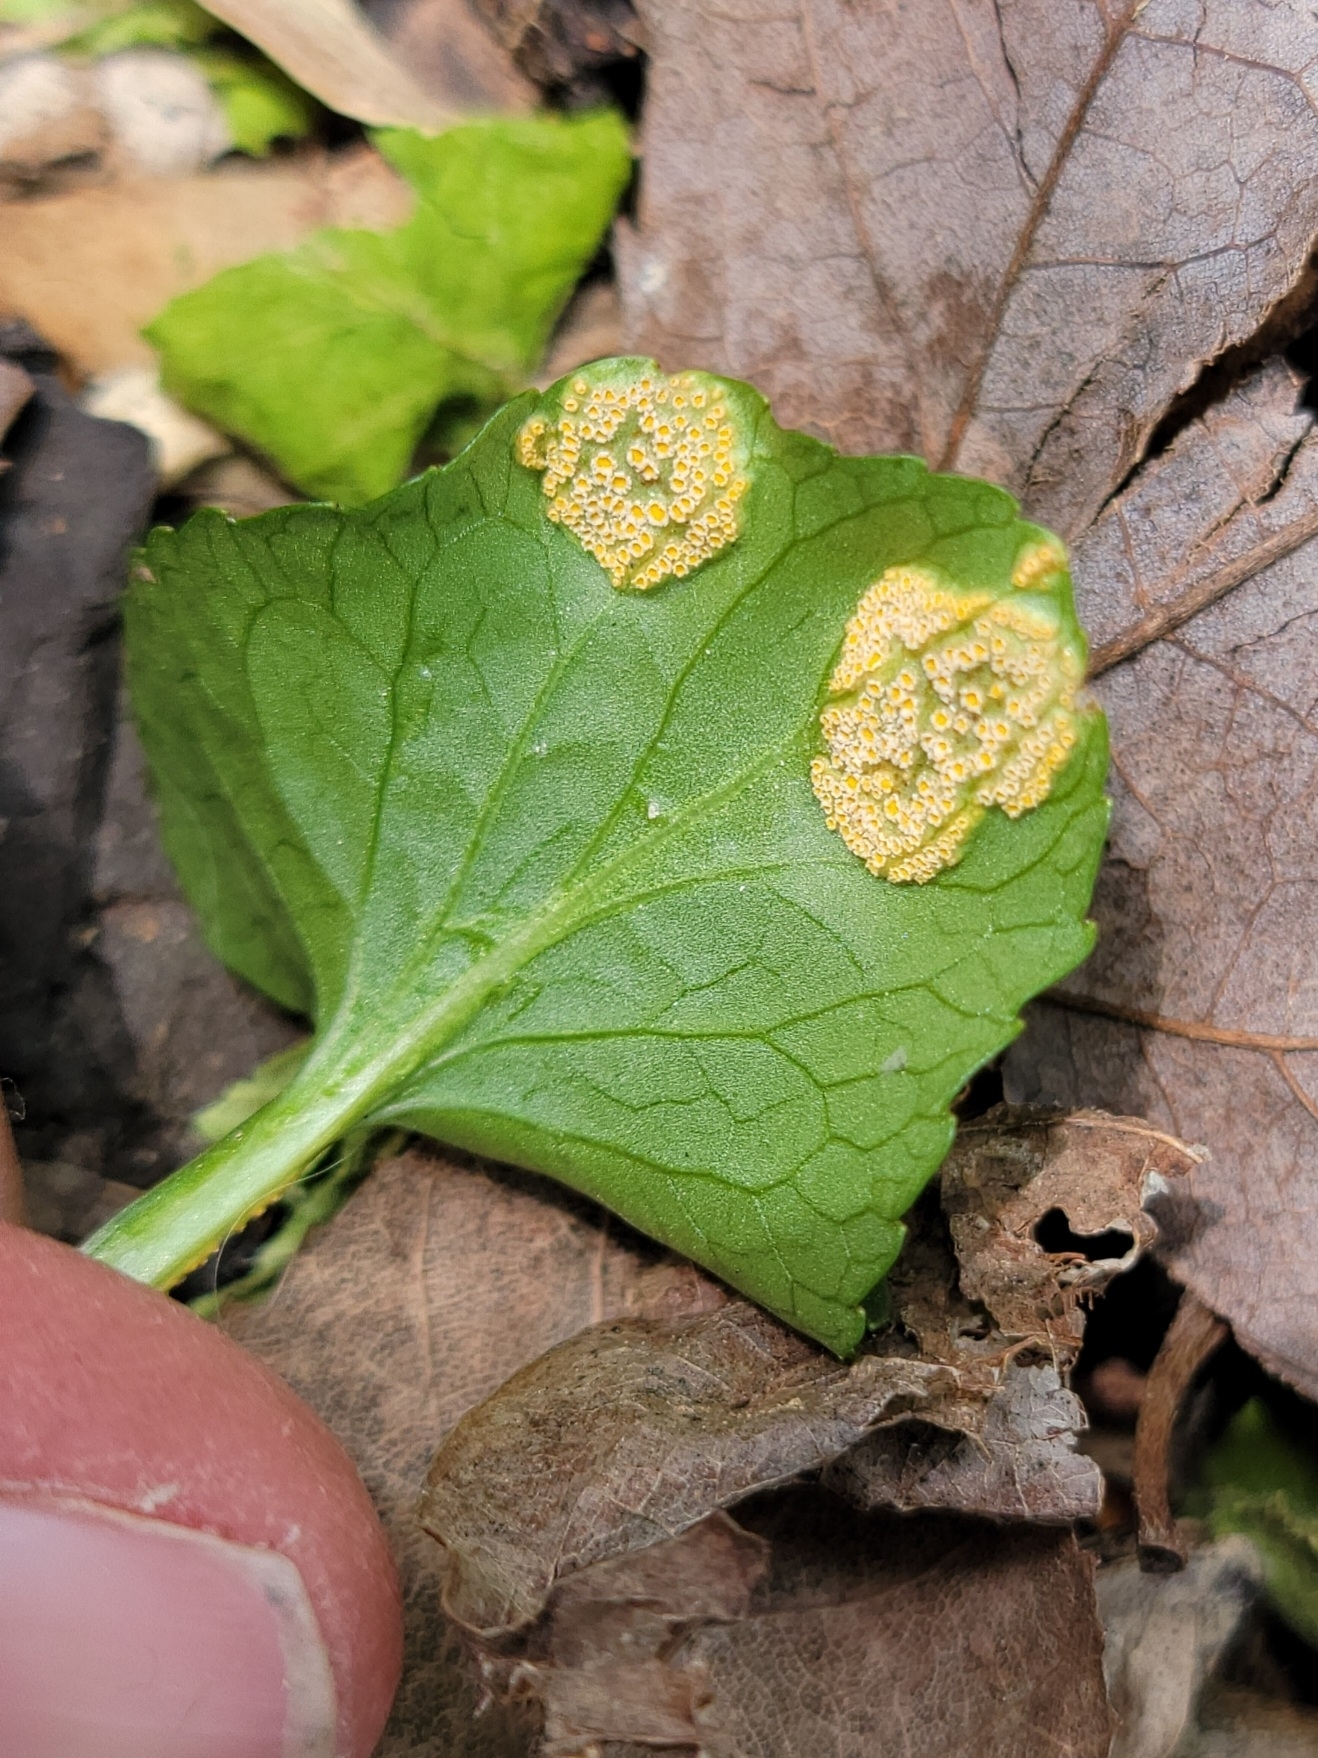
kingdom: Fungi
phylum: Basidiomycota
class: Pucciniomycetes
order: Pucciniales
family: Pucciniaceae
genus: Puccinia
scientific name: Puccinia violae
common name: Violet rust
